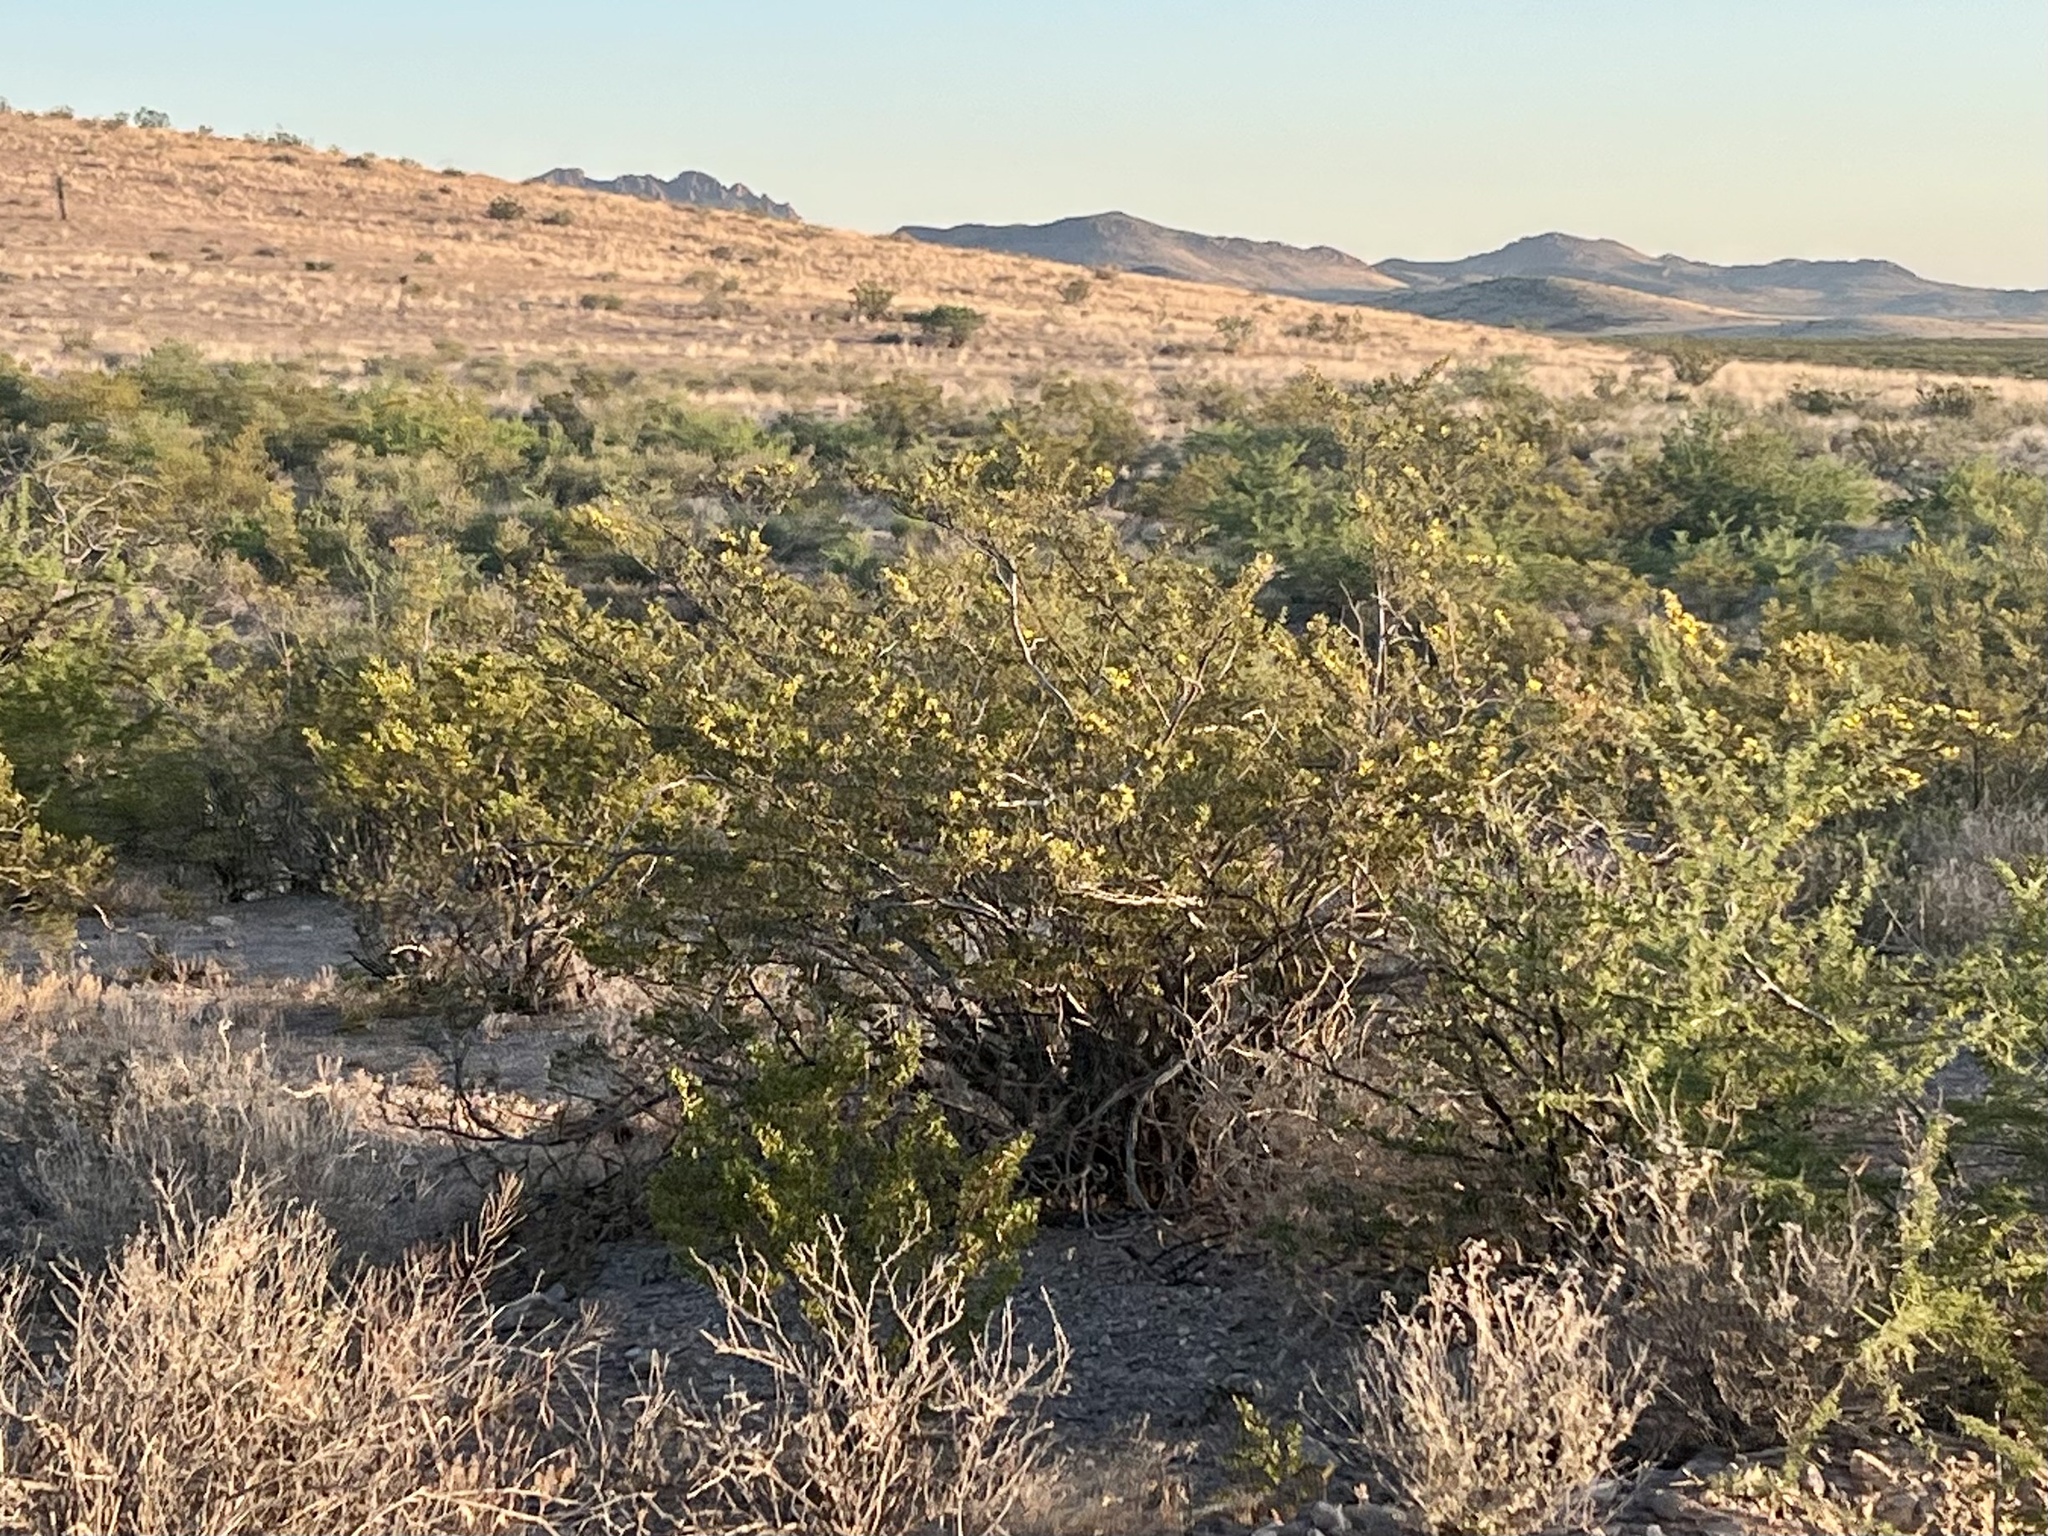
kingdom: Plantae
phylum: Tracheophyta
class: Magnoliopsida
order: Zygophyllales
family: Zygophyllaceae
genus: Larrea
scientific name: Larrea tridentata
